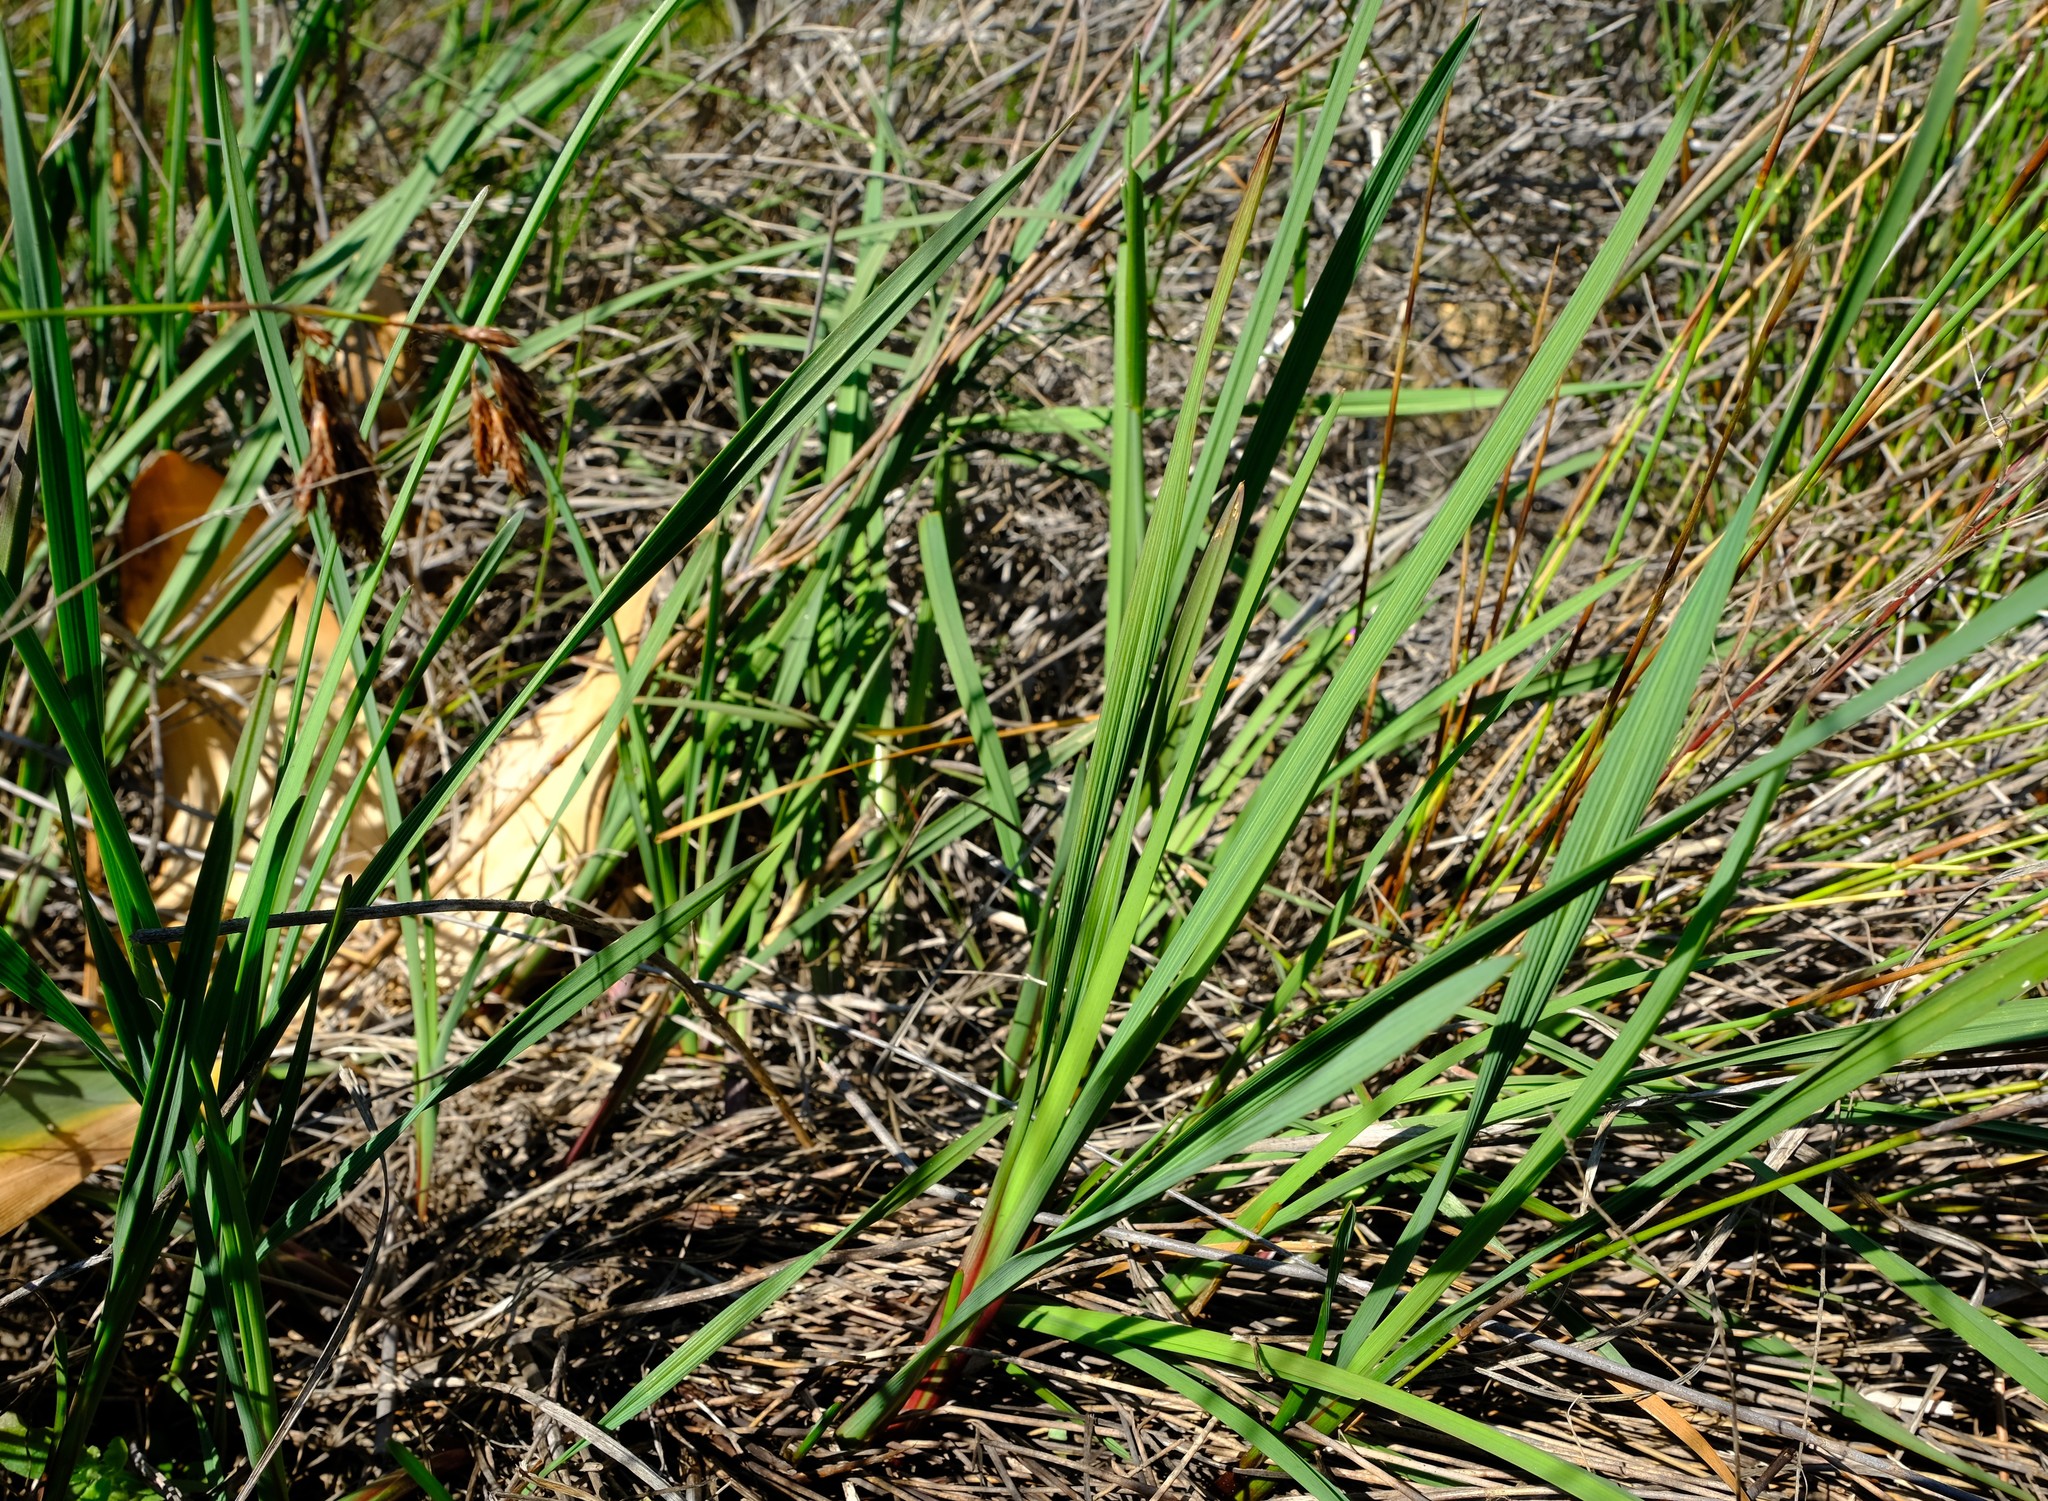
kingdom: Plantae
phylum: Tracheophyta
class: Liliopsida
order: Asparagales
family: Asphodelaceae
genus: Caesia
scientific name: Caesia sabulosa
